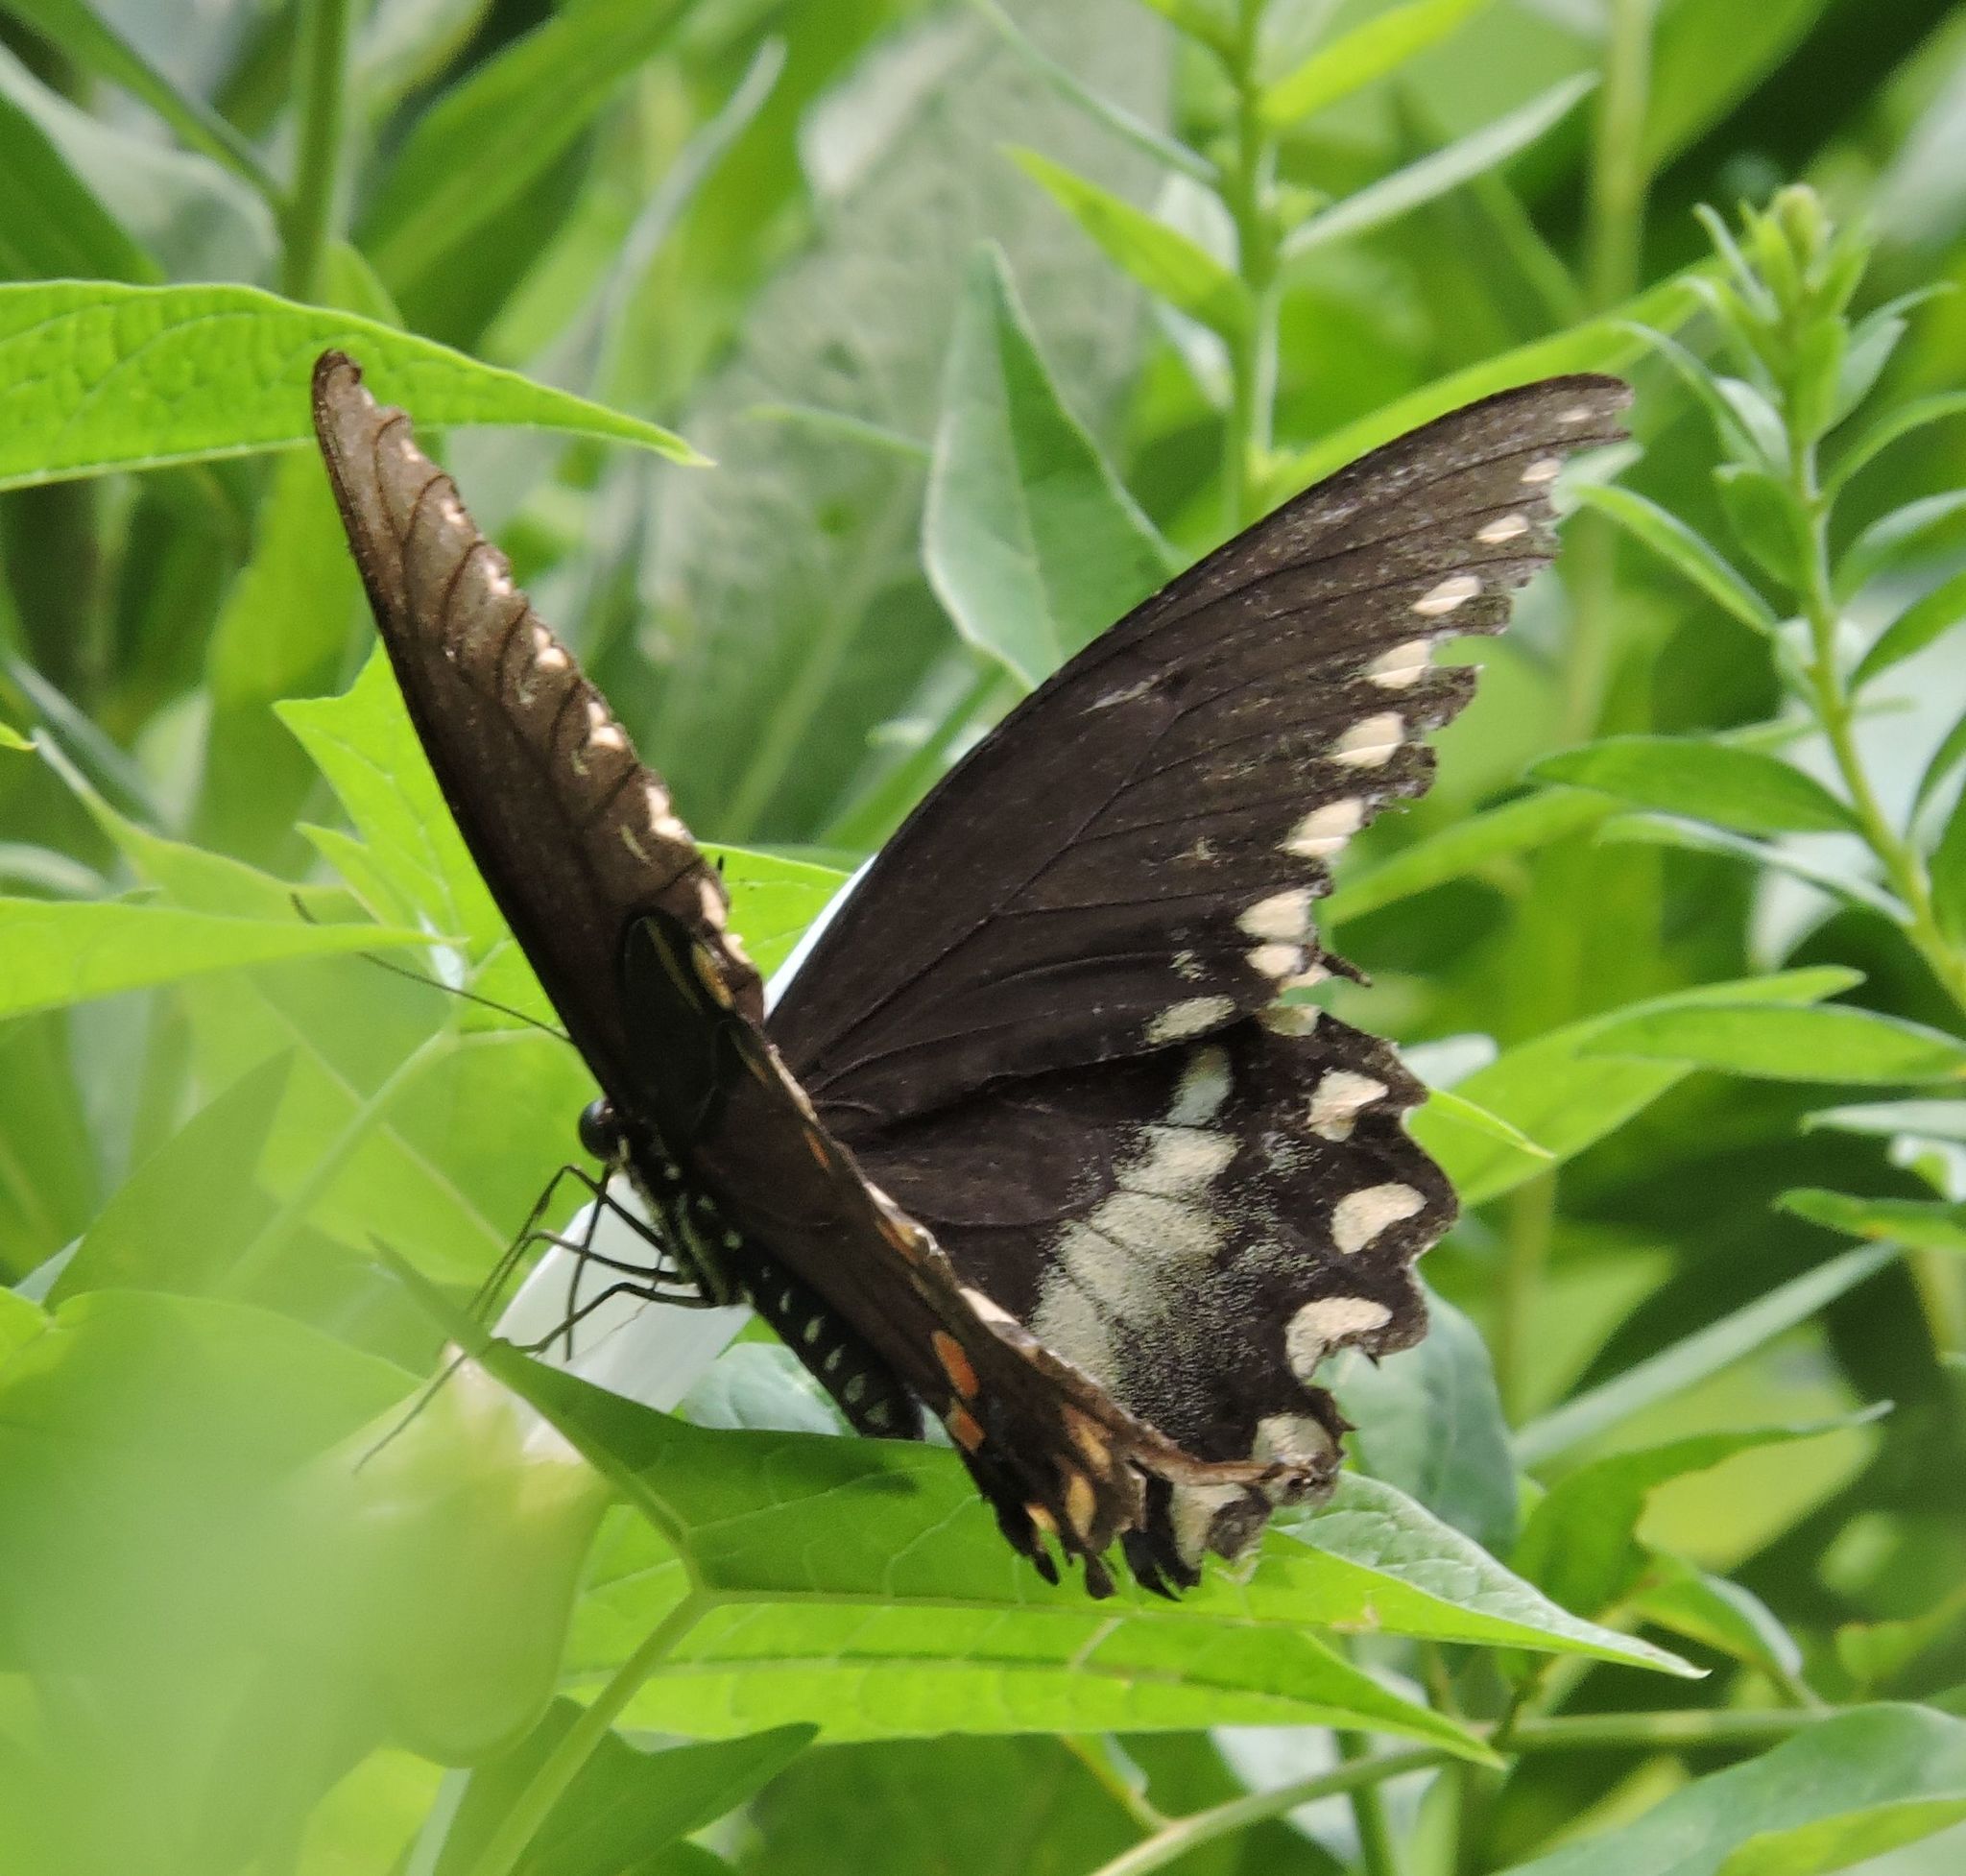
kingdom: Animalia
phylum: Arthropoda
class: Insecta
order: Lepidoptera
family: Papilionidae
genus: Papilio
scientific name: Papilio troilus
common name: Spicebush swallowtail
